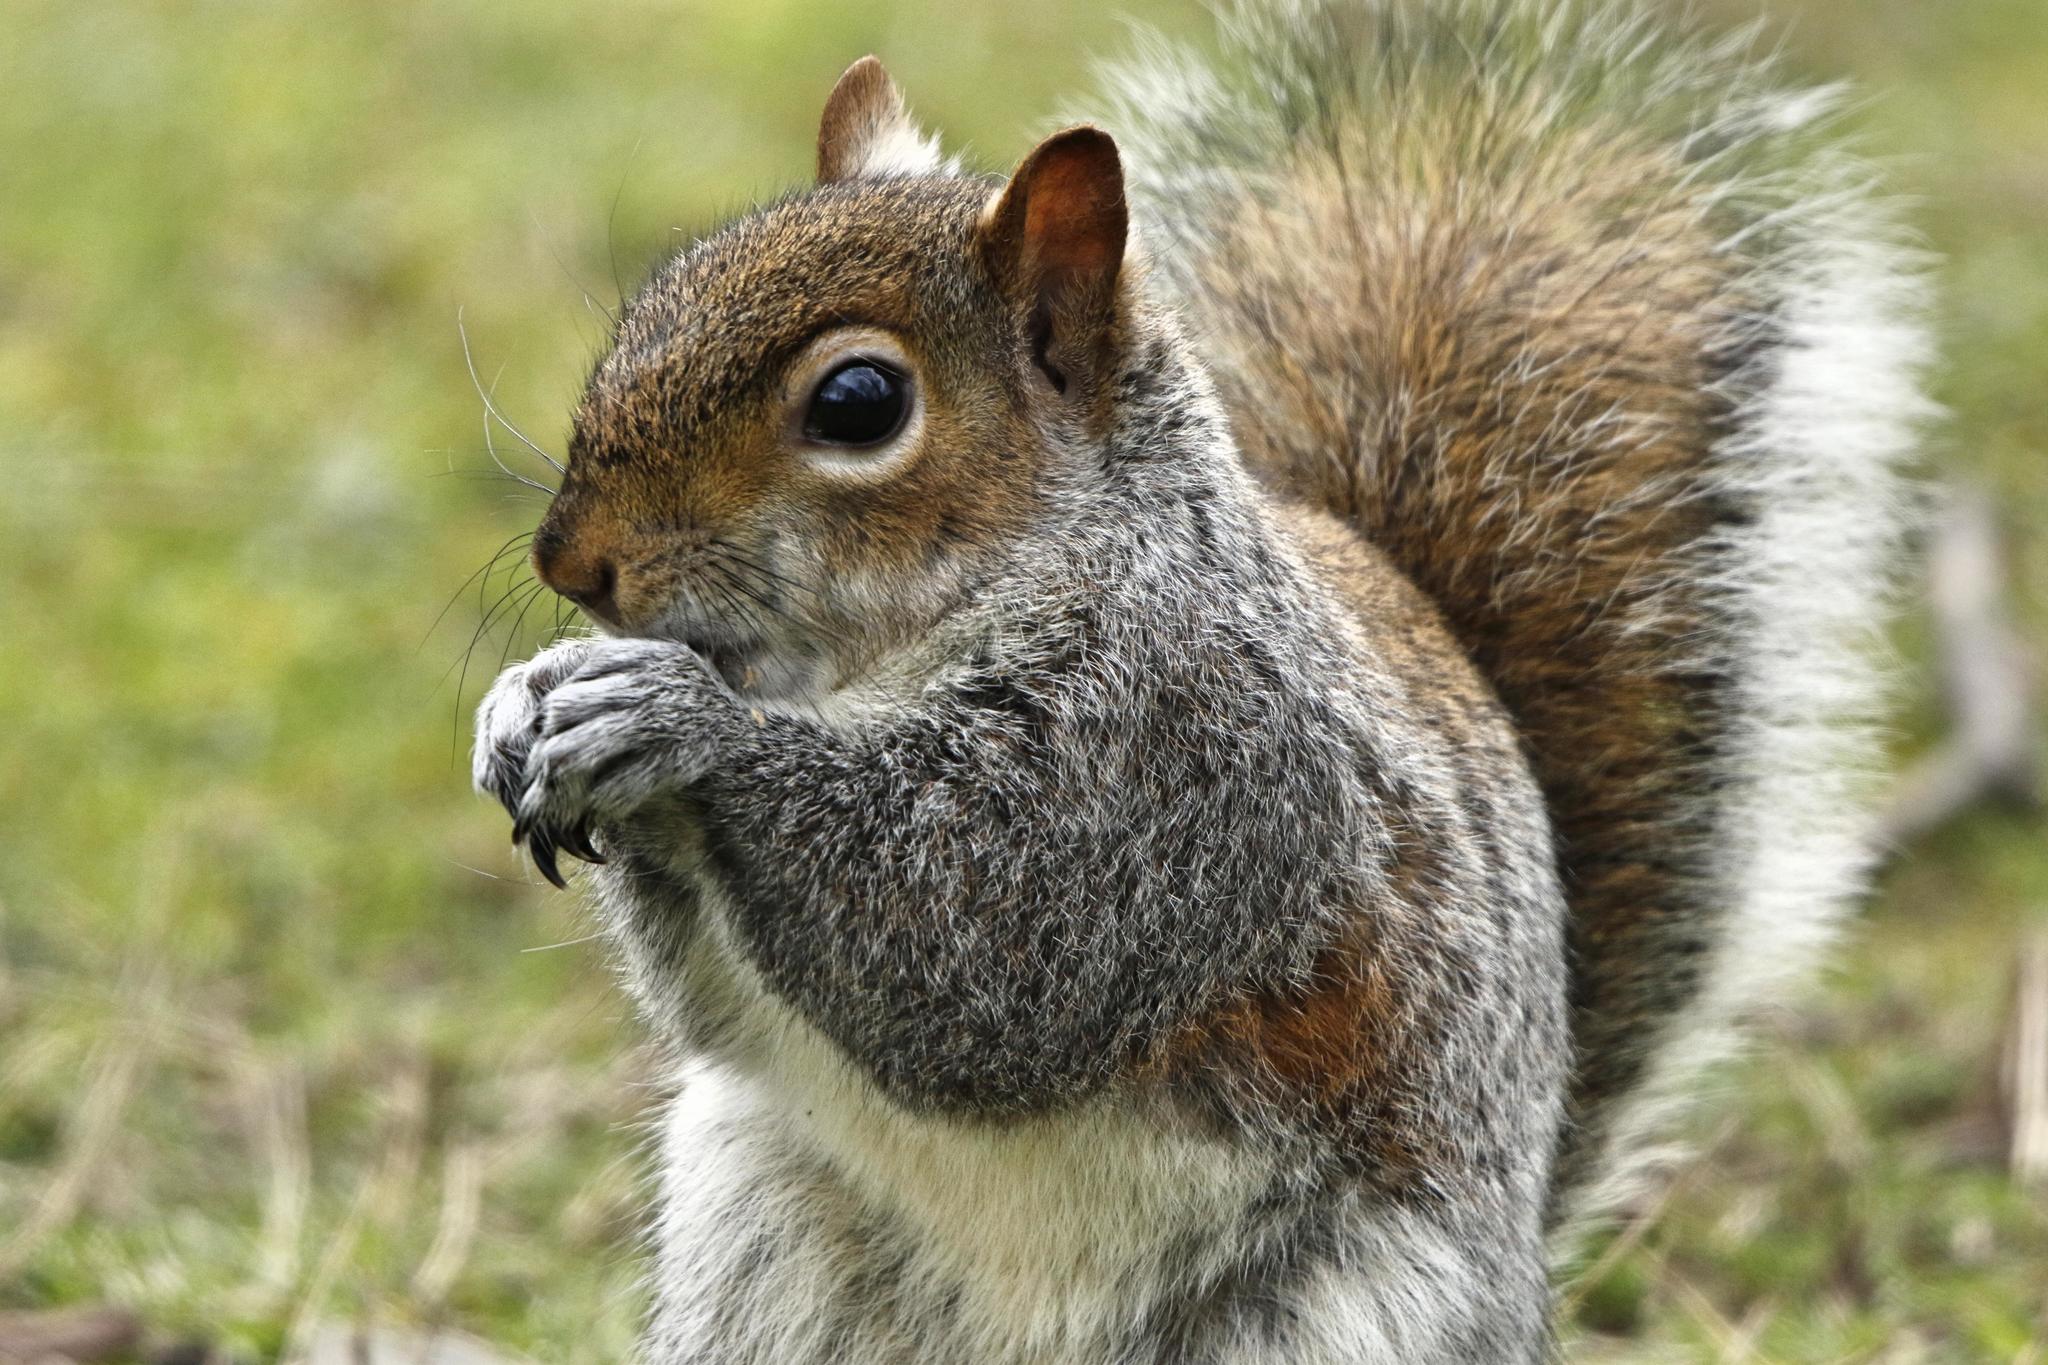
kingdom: Animalia
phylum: Chordata
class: Mammalia
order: Rodentia
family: Sciuridae
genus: Sciurus
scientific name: Sciurus carolinensis
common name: Eastern gray squirrel
